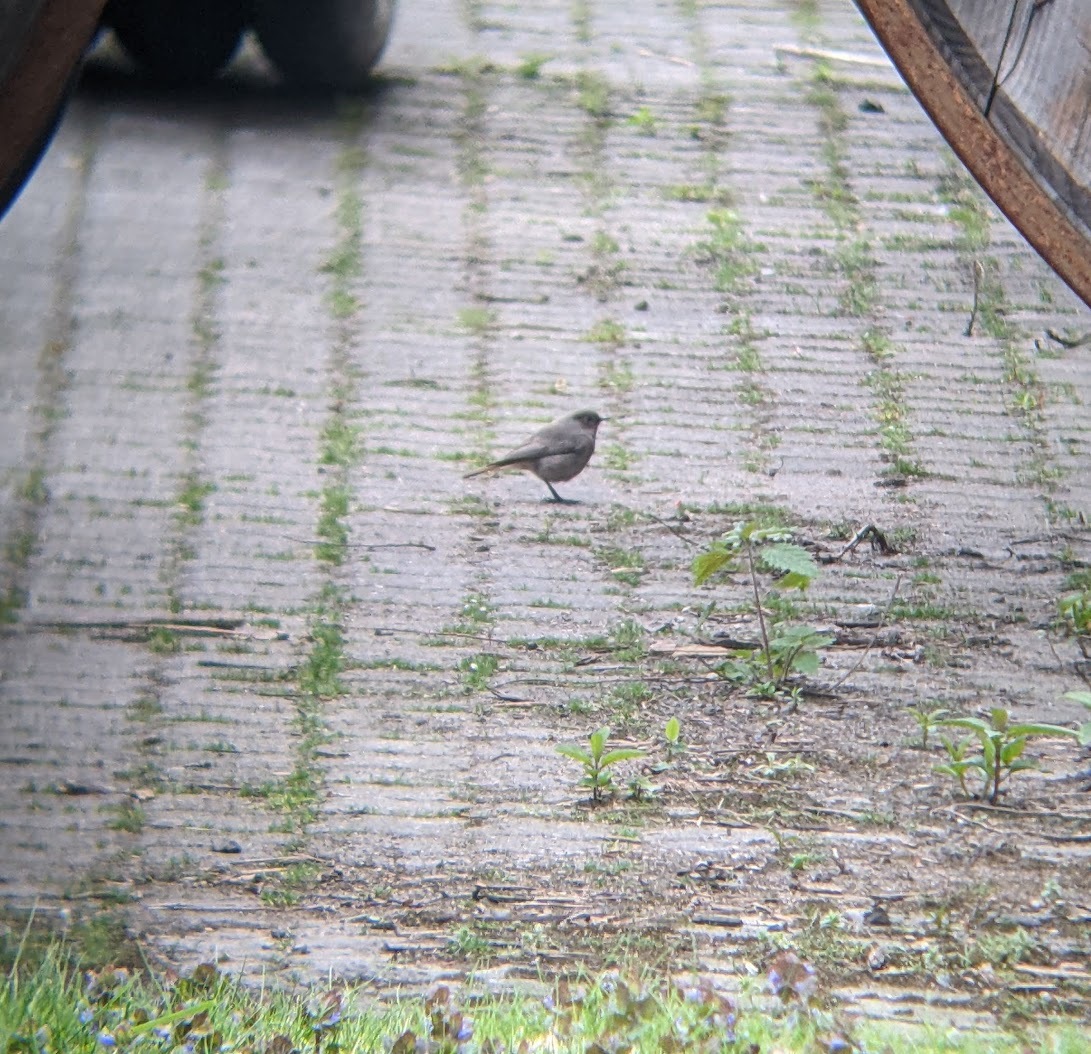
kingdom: Animalia
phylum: Chordata
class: Aves
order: Passeriformes
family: Muscicapidae
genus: Phoenicurus
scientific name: Phoenicurus ochruros
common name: Black redstart
